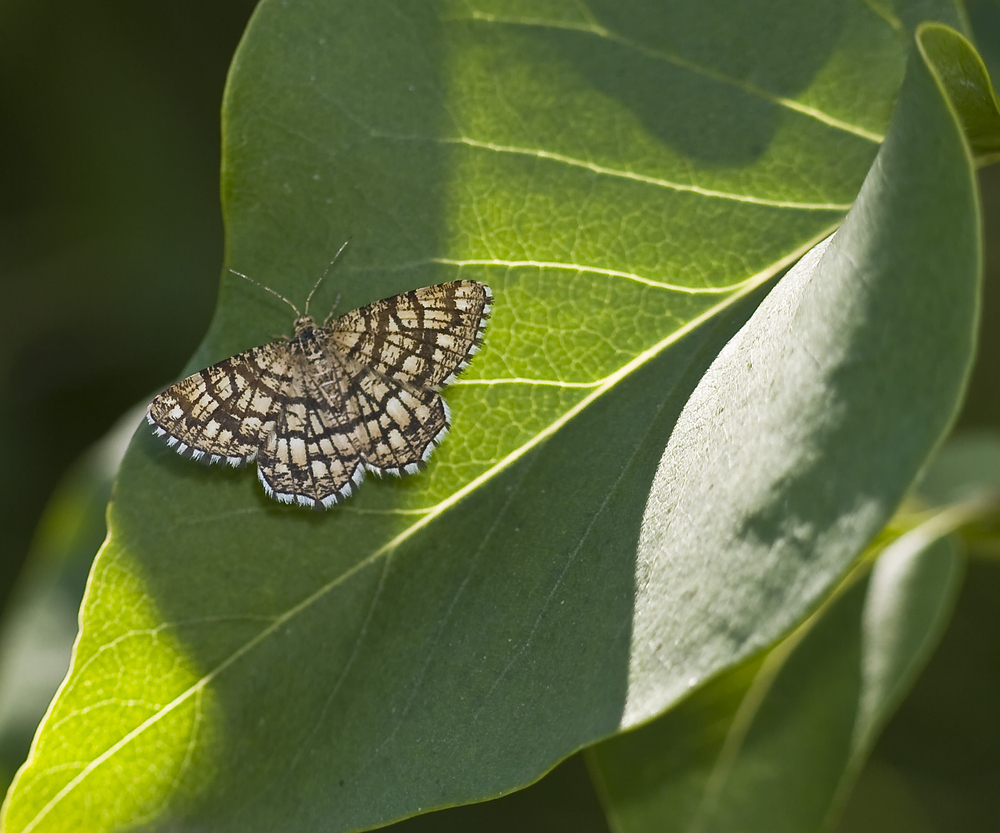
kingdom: Animalia
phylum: Arthropoda
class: Insecta
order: Lepidoptera
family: Geometridae
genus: Chiasmia
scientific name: Chiasmia clathrata
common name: Latticed heath
